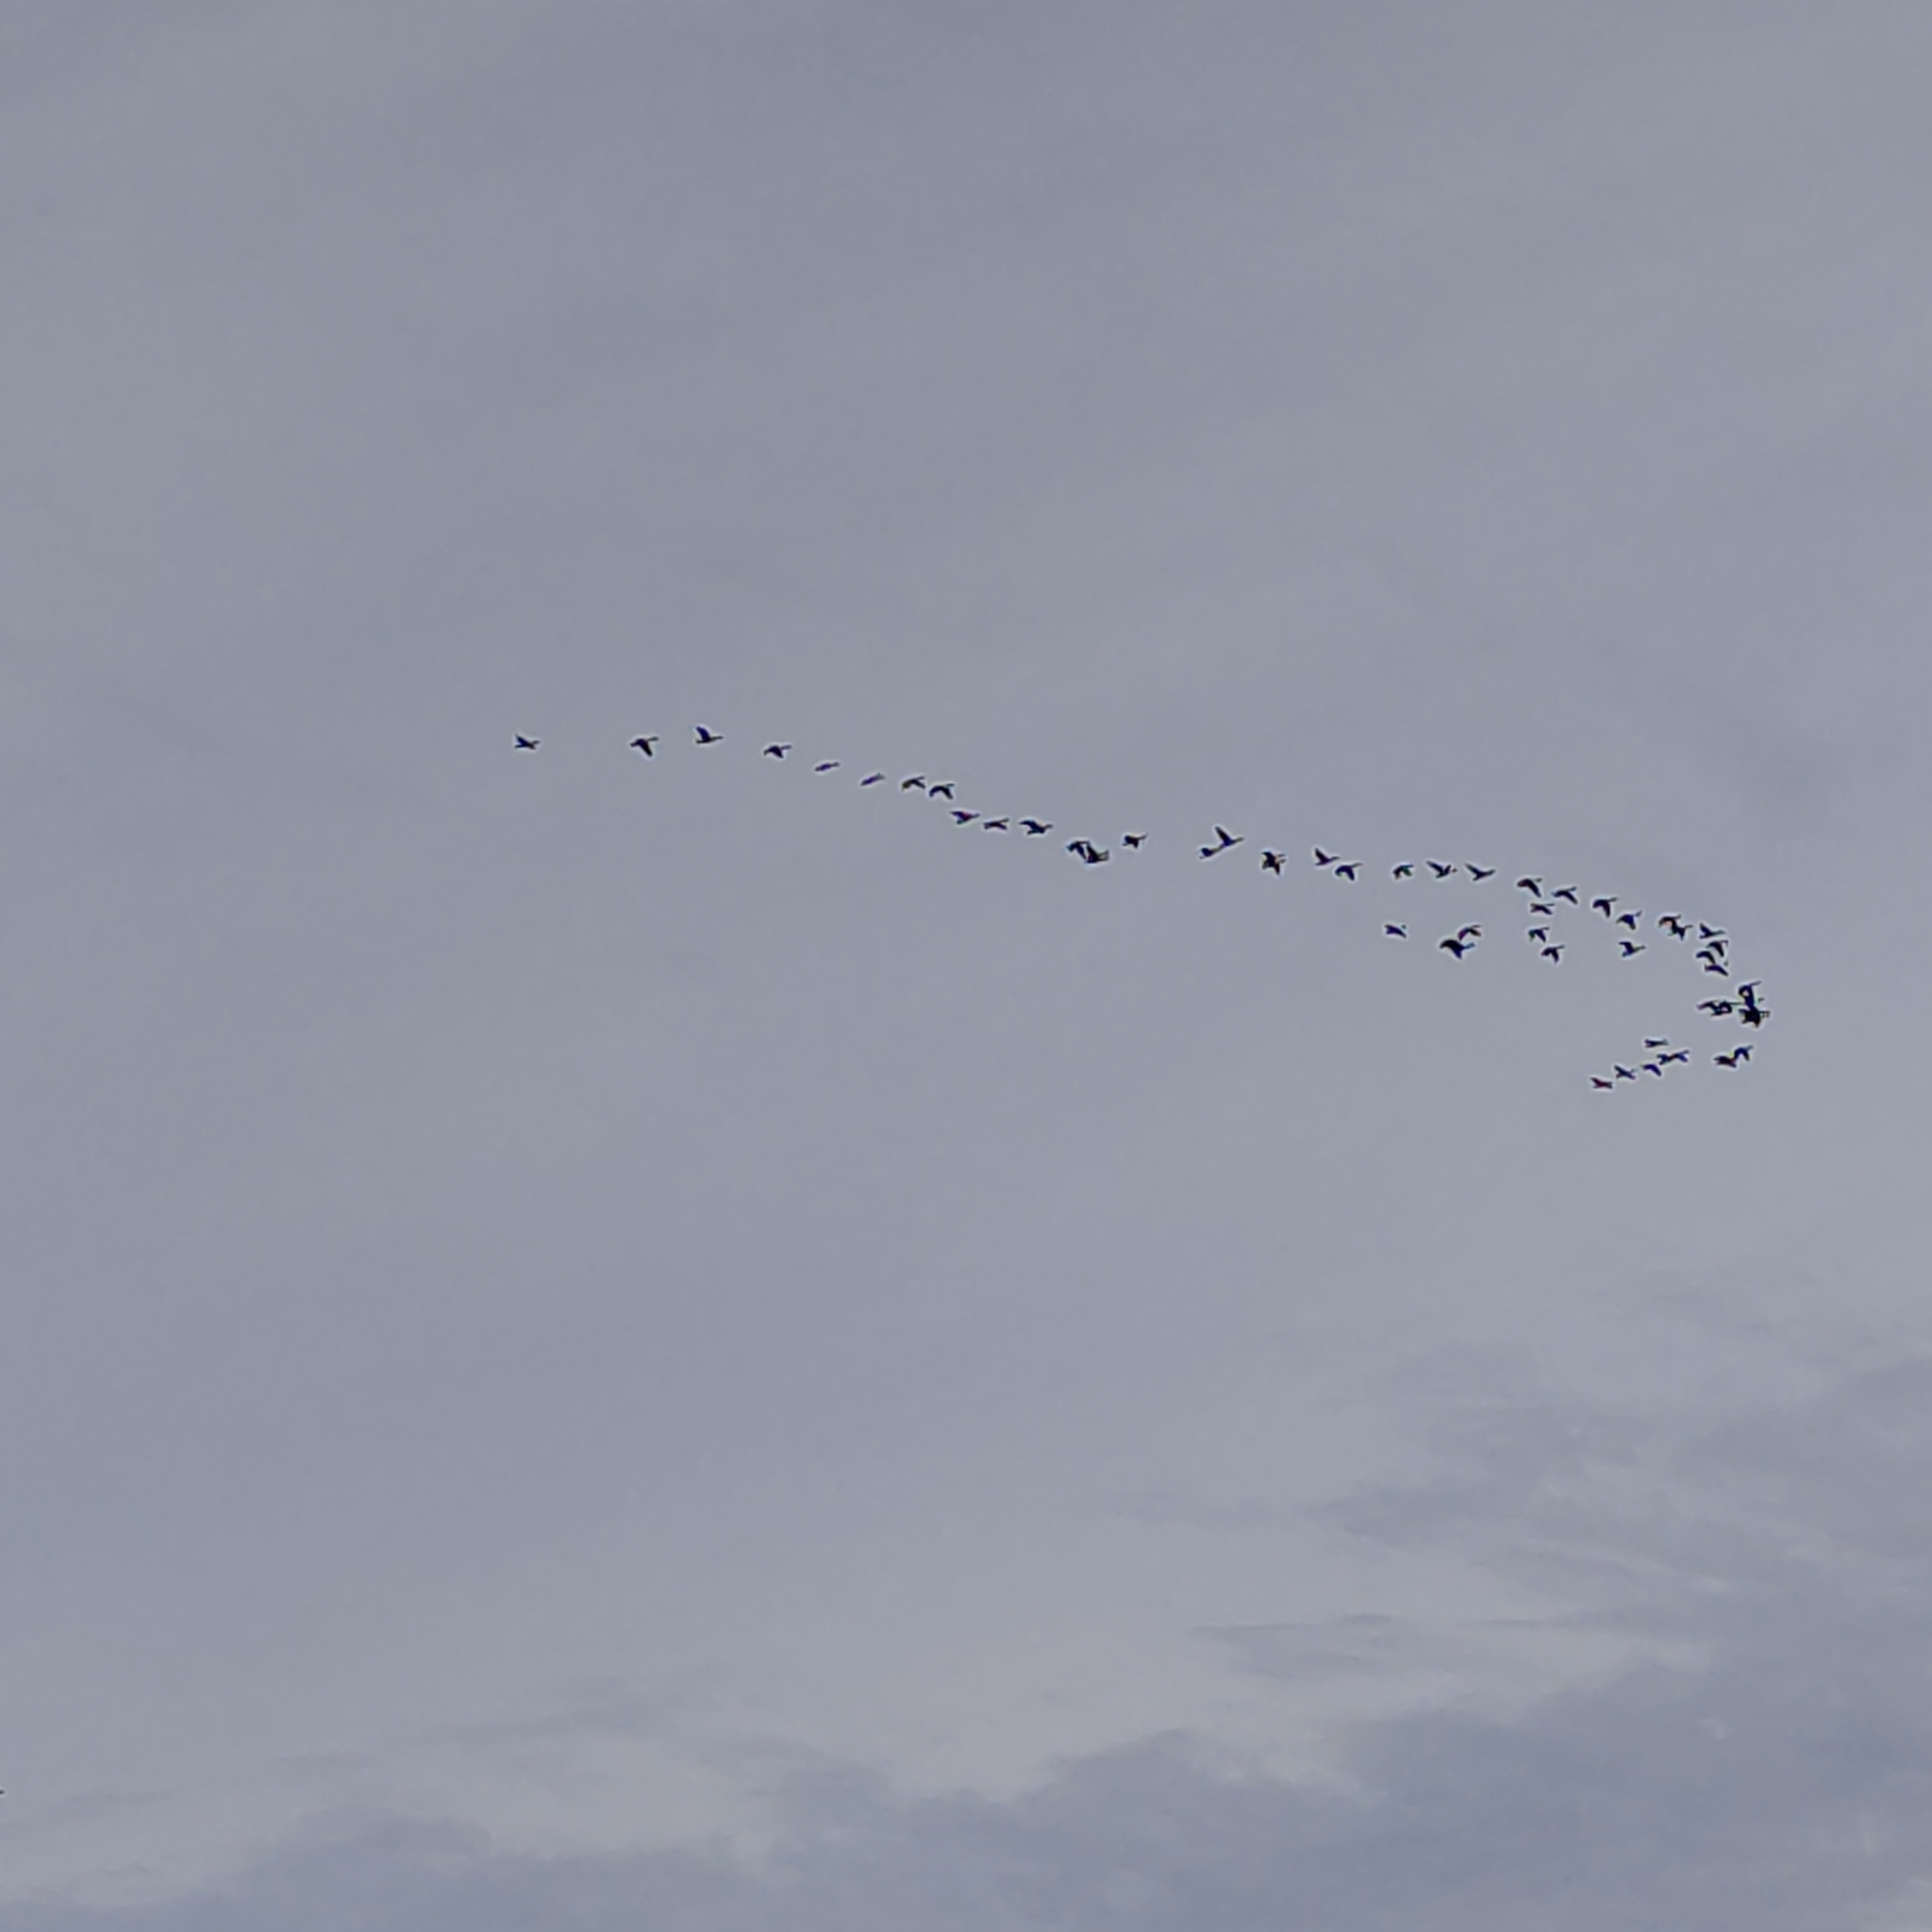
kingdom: Animalia
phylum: Chordata
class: Aves
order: Anseriformes
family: Anatidae
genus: Branta
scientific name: Branta canadensis
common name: Canada goose
